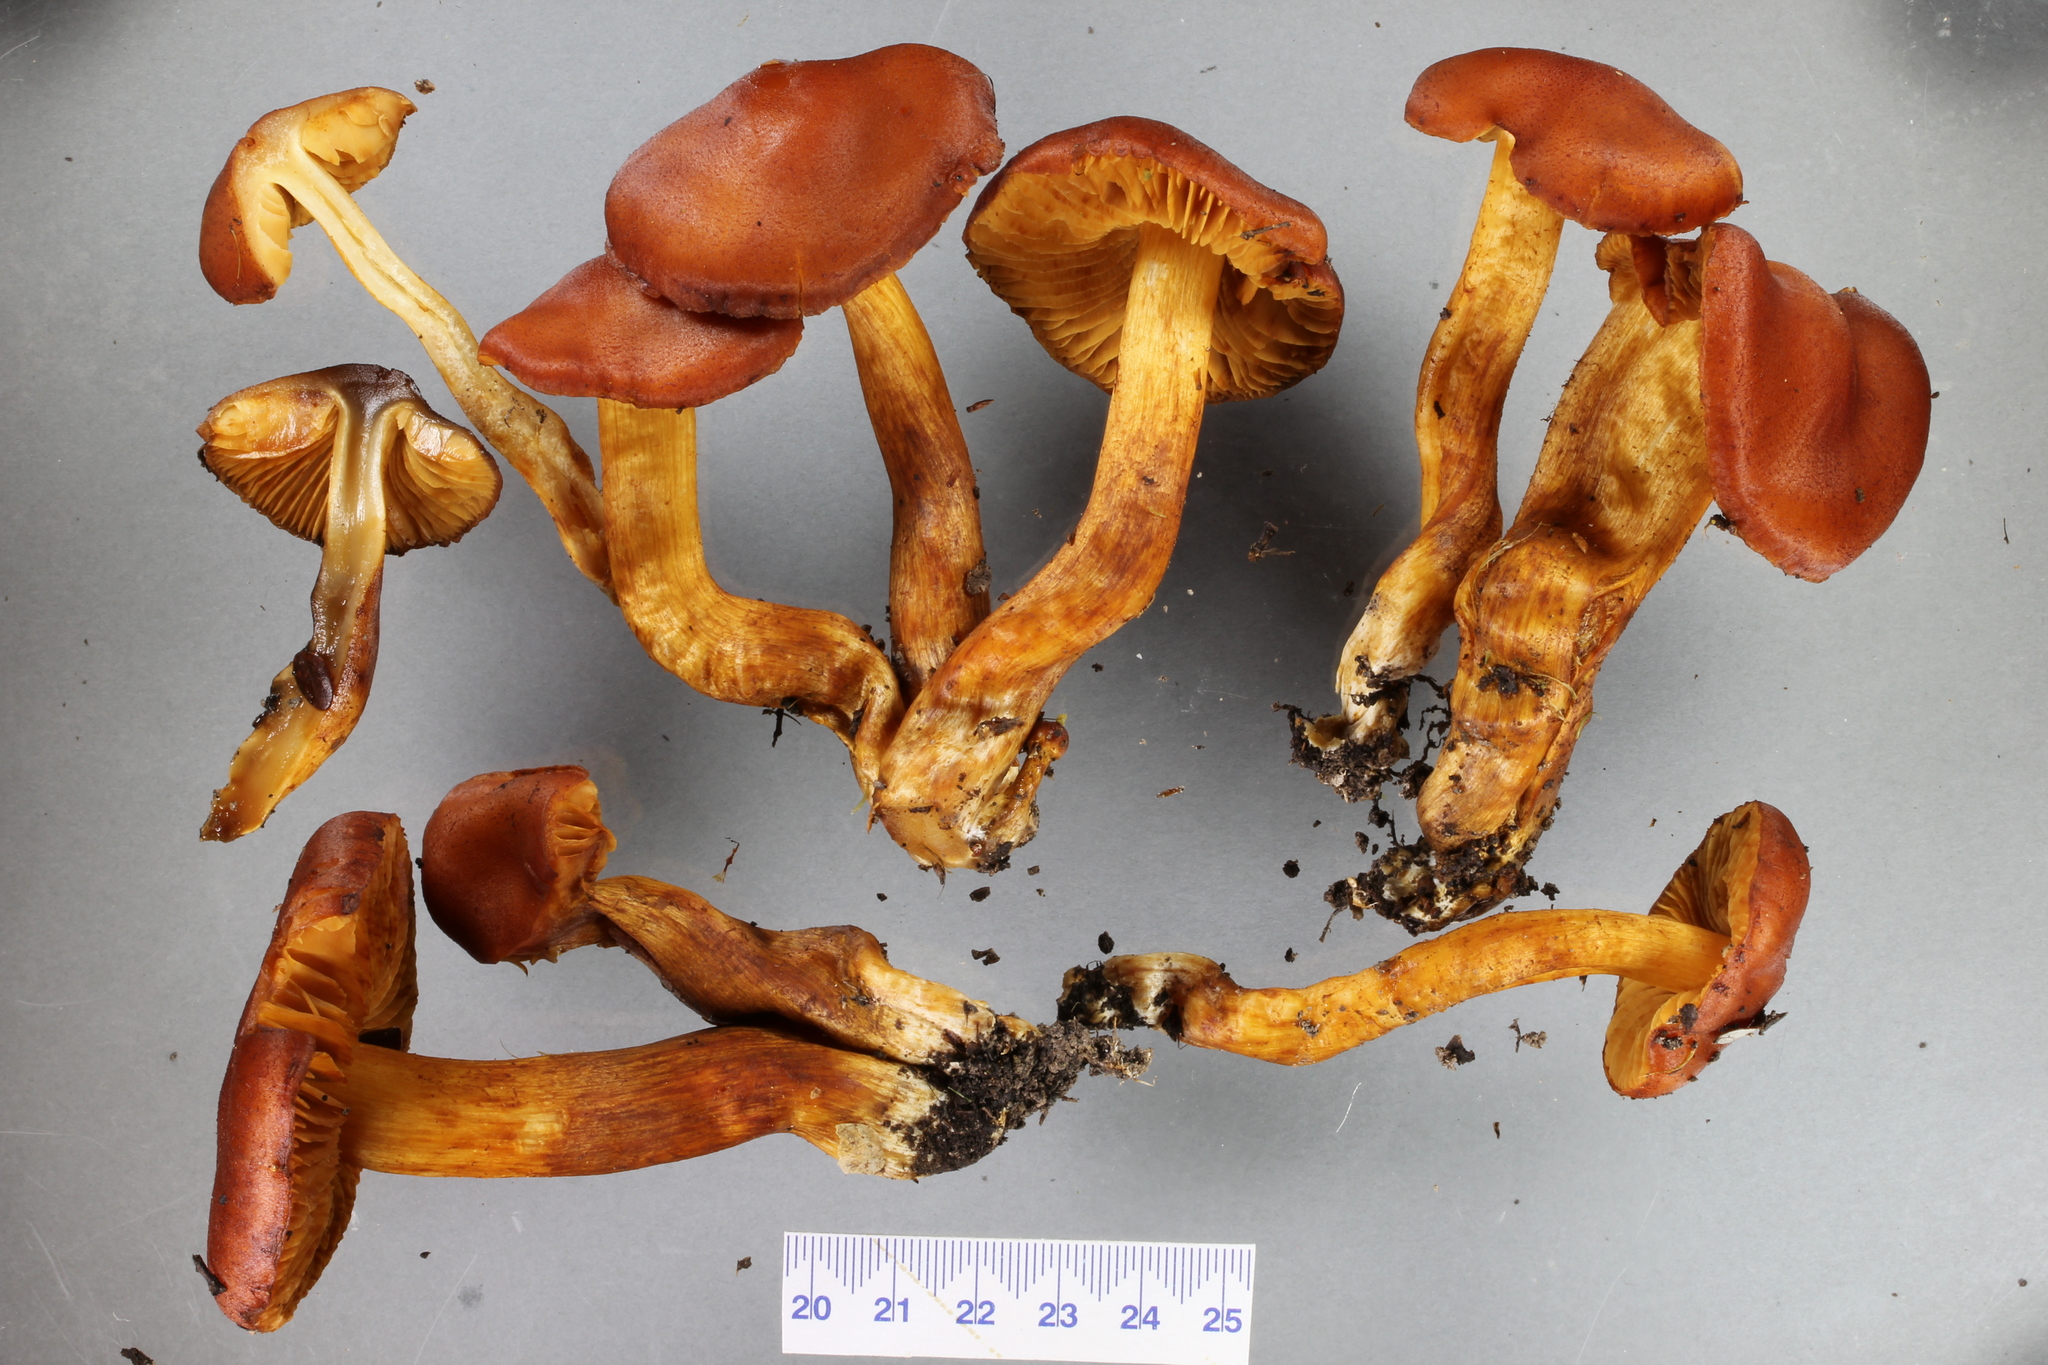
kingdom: Fungi
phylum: Basidiomycota
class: Agaricomycetes
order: Agaricales
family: Cortinariaceae
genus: Aureonarius
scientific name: Aureonarius rubrodactylus
